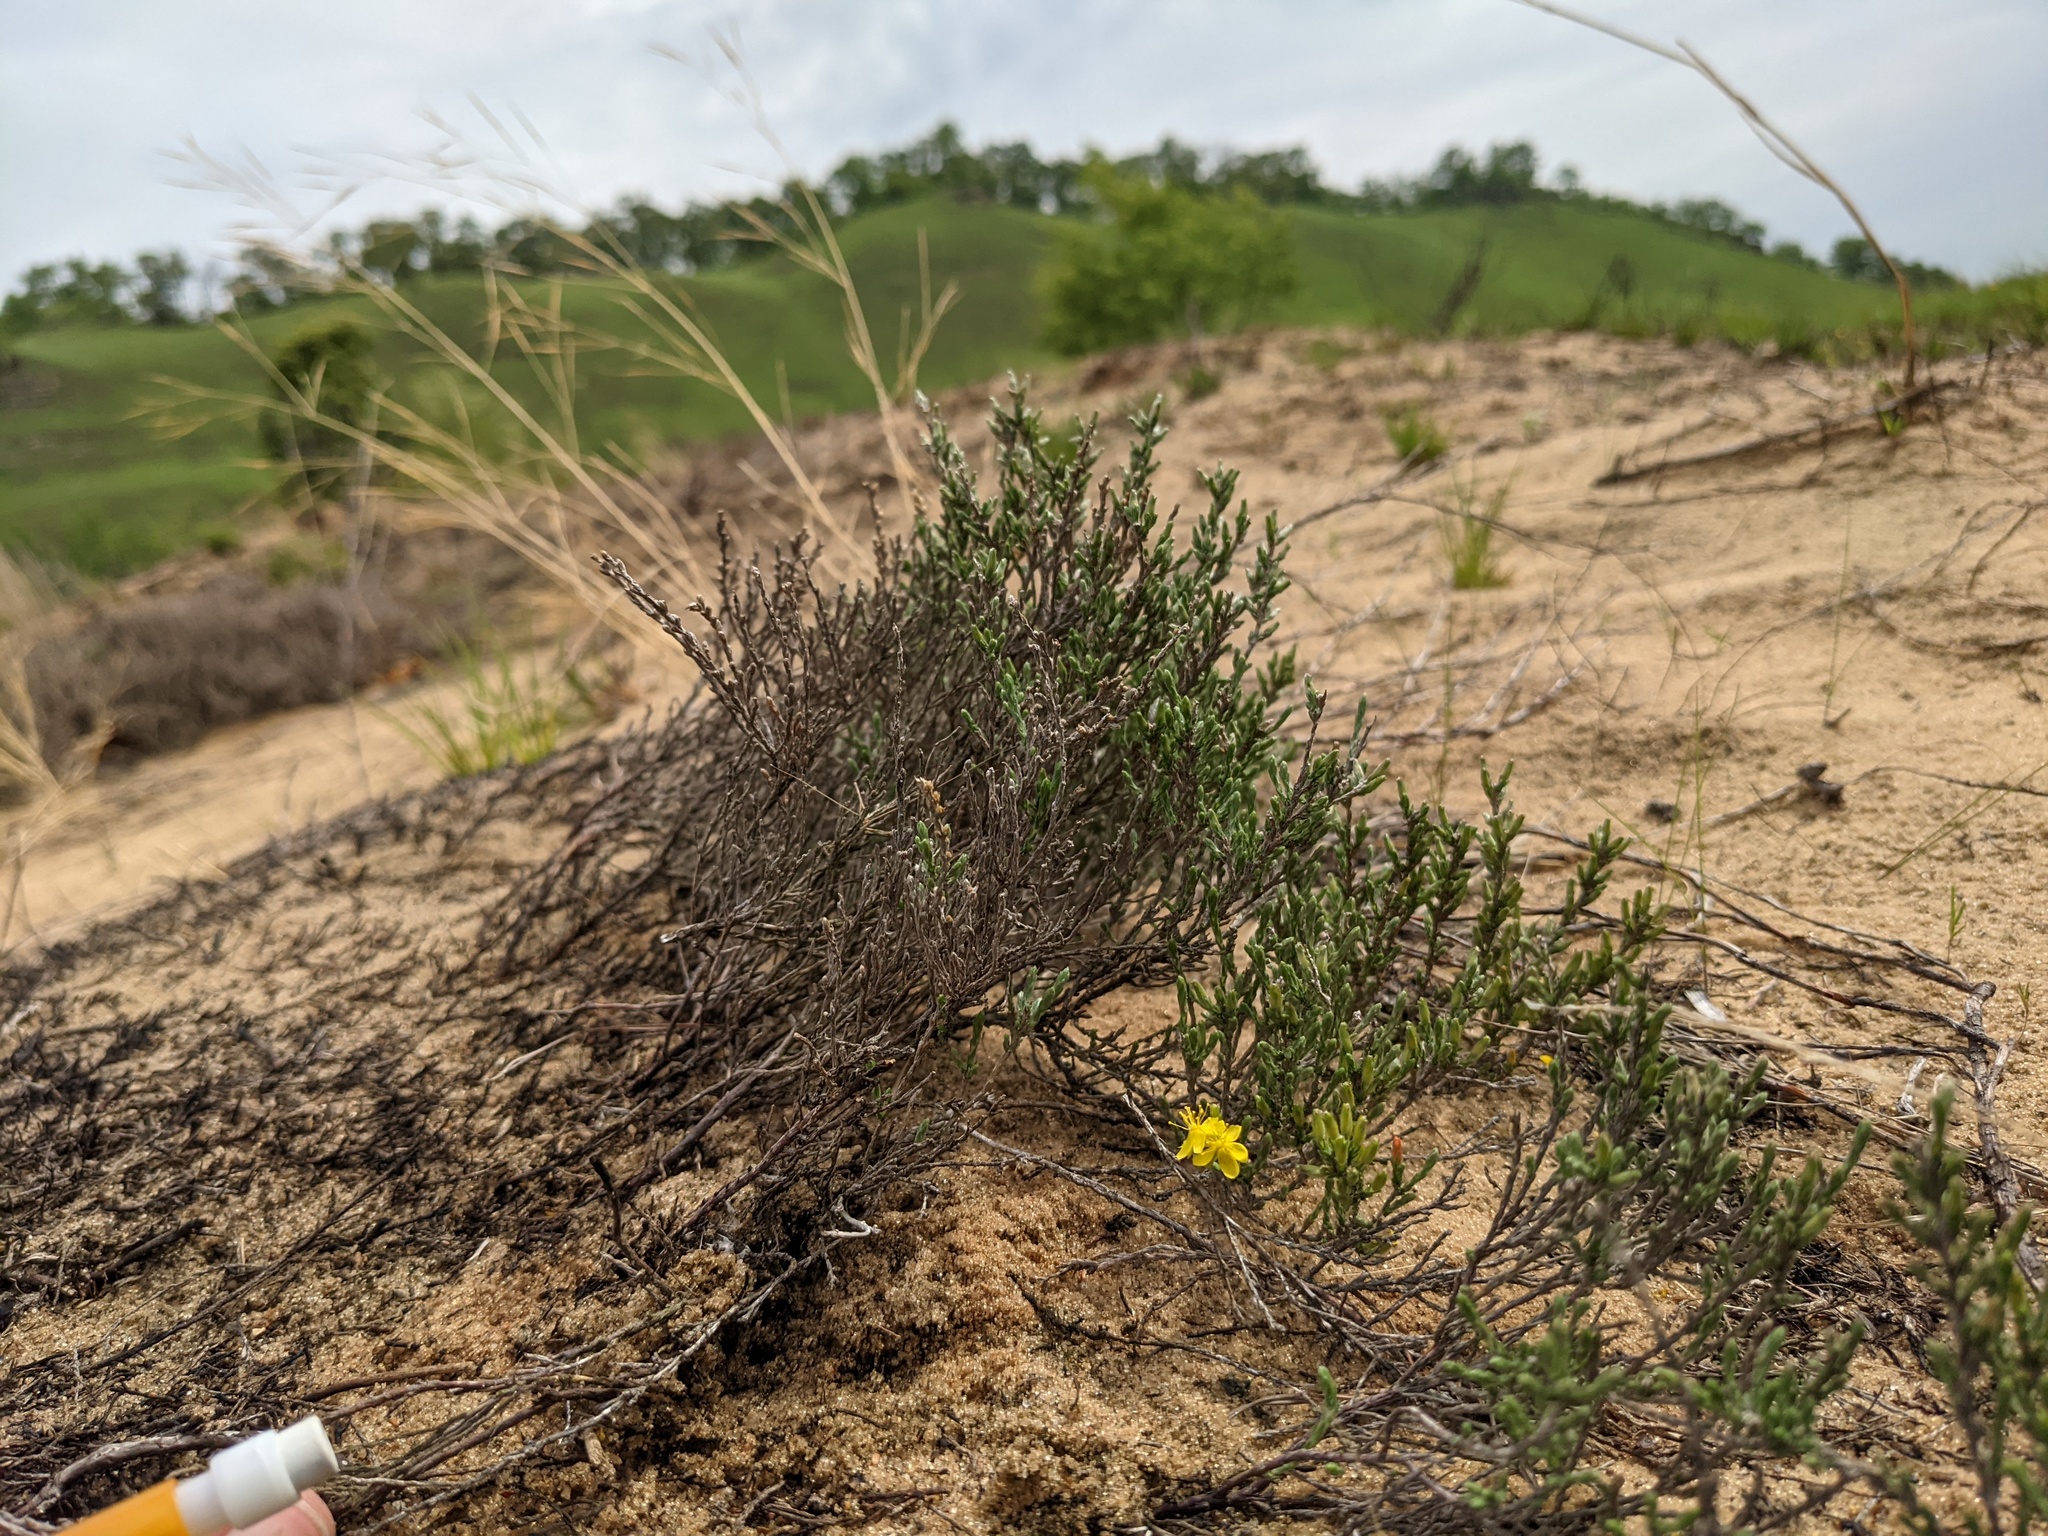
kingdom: Plantae
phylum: Tracheophyta
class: Magnoliopsida
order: Malvales
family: Cistaceae
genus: Hudsonia
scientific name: Hudsonia tomentosa
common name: Beach-heath
